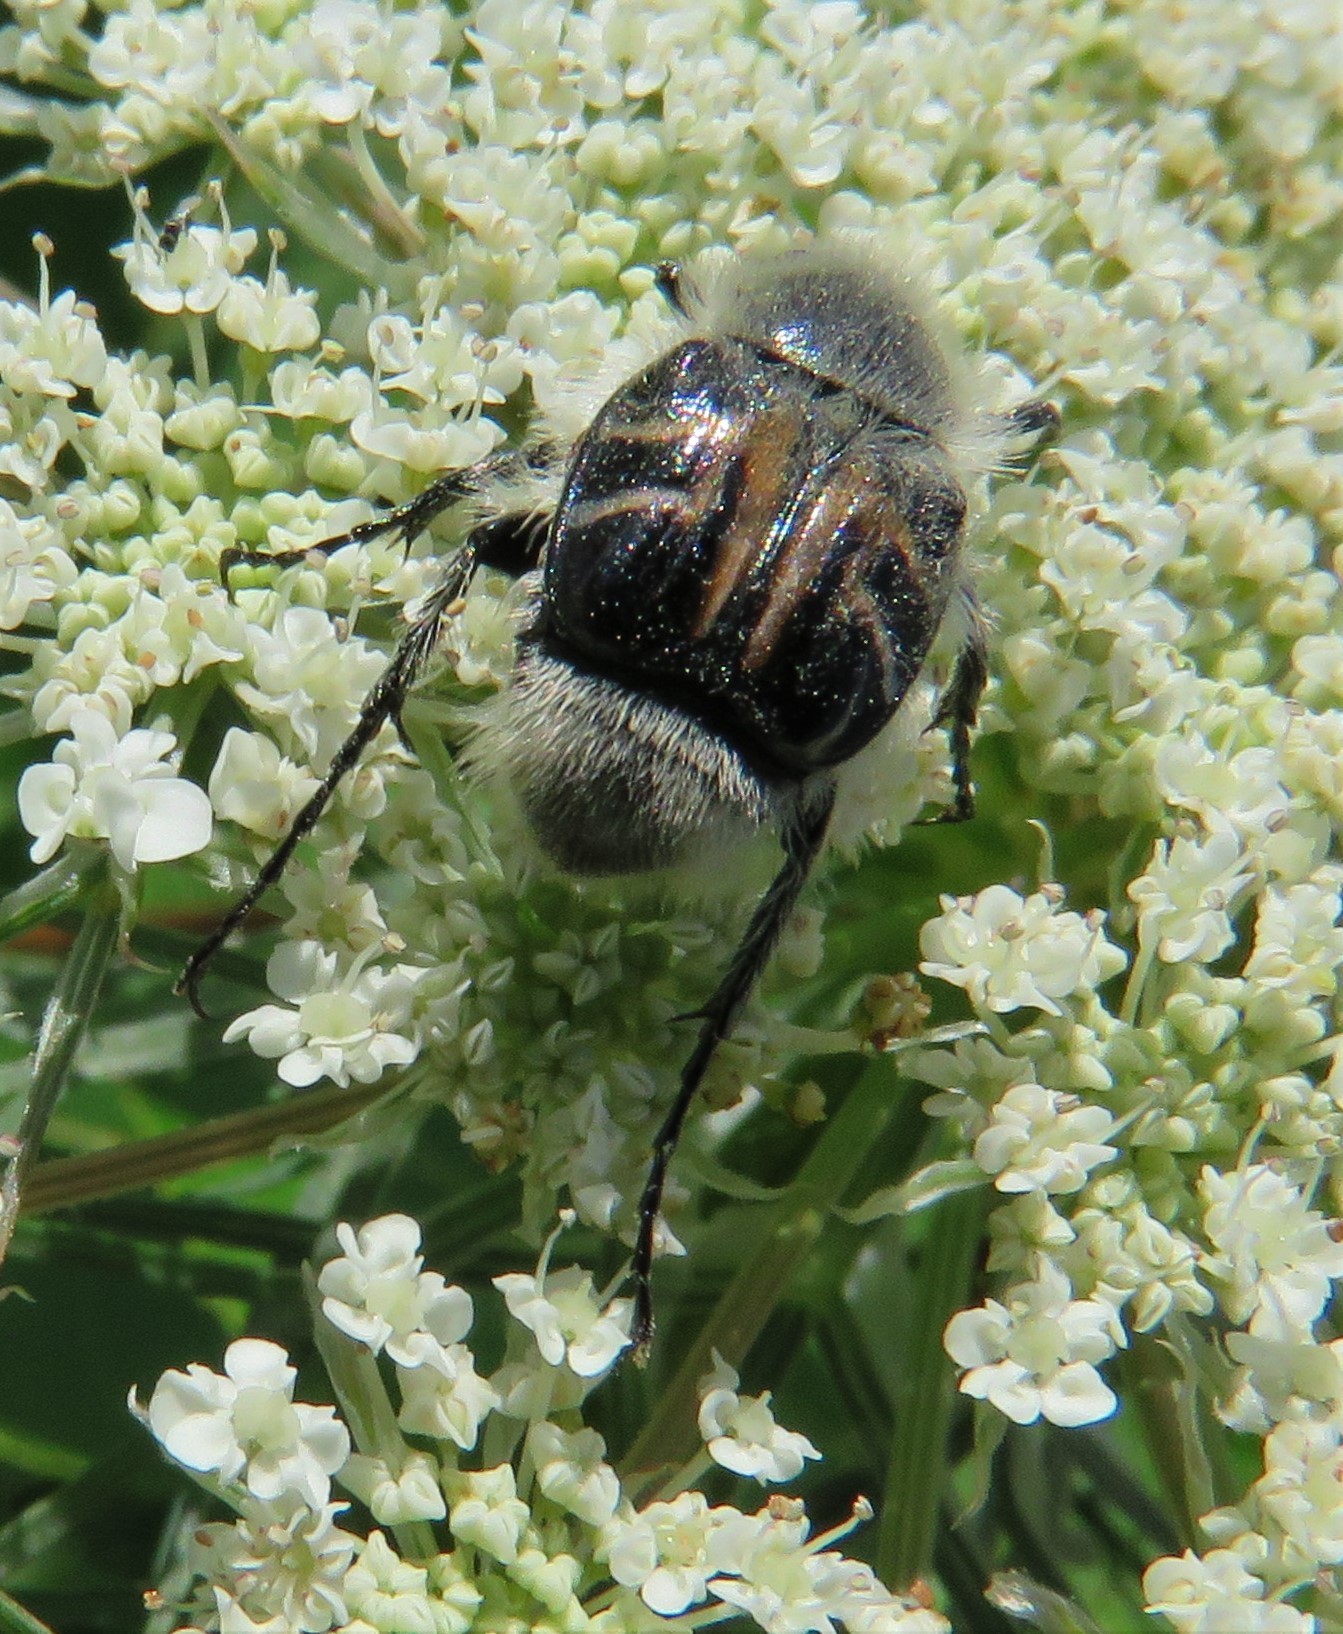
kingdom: Animalia
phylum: Arthropoda
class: Insecta
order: Coleoptera
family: Scarabaeidae
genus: Trichiotinus
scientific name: Trichiotinus assimilis
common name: Bee-mimic beetle
